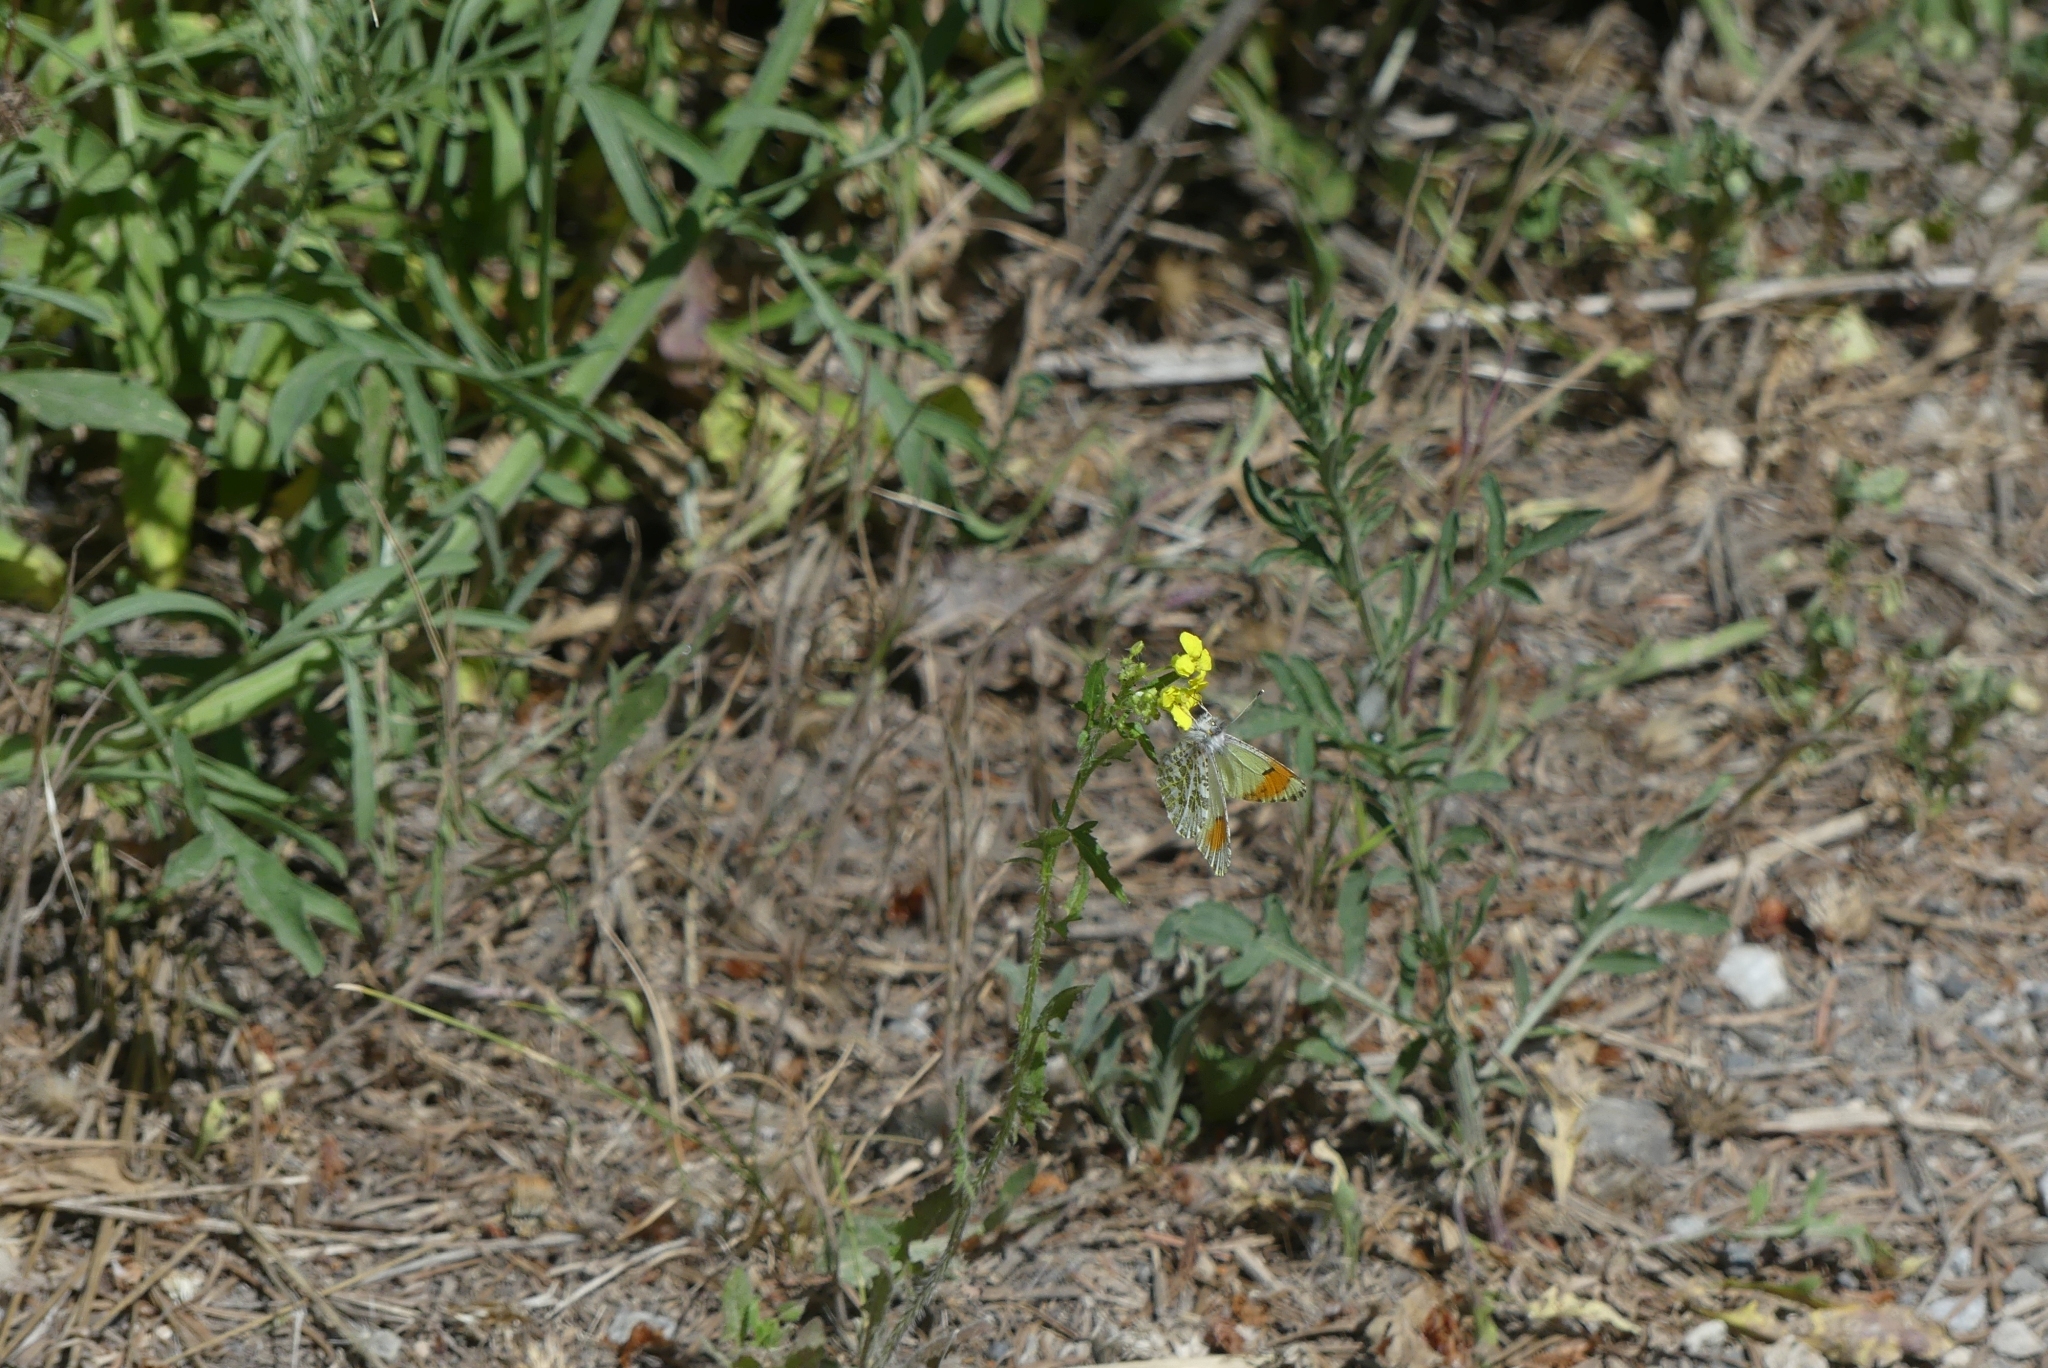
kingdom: Animalia
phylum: Arthropoda
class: Insecta
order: Lepidoptera
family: Pieridae
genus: Anthocharis
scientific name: Anthocharis julia
